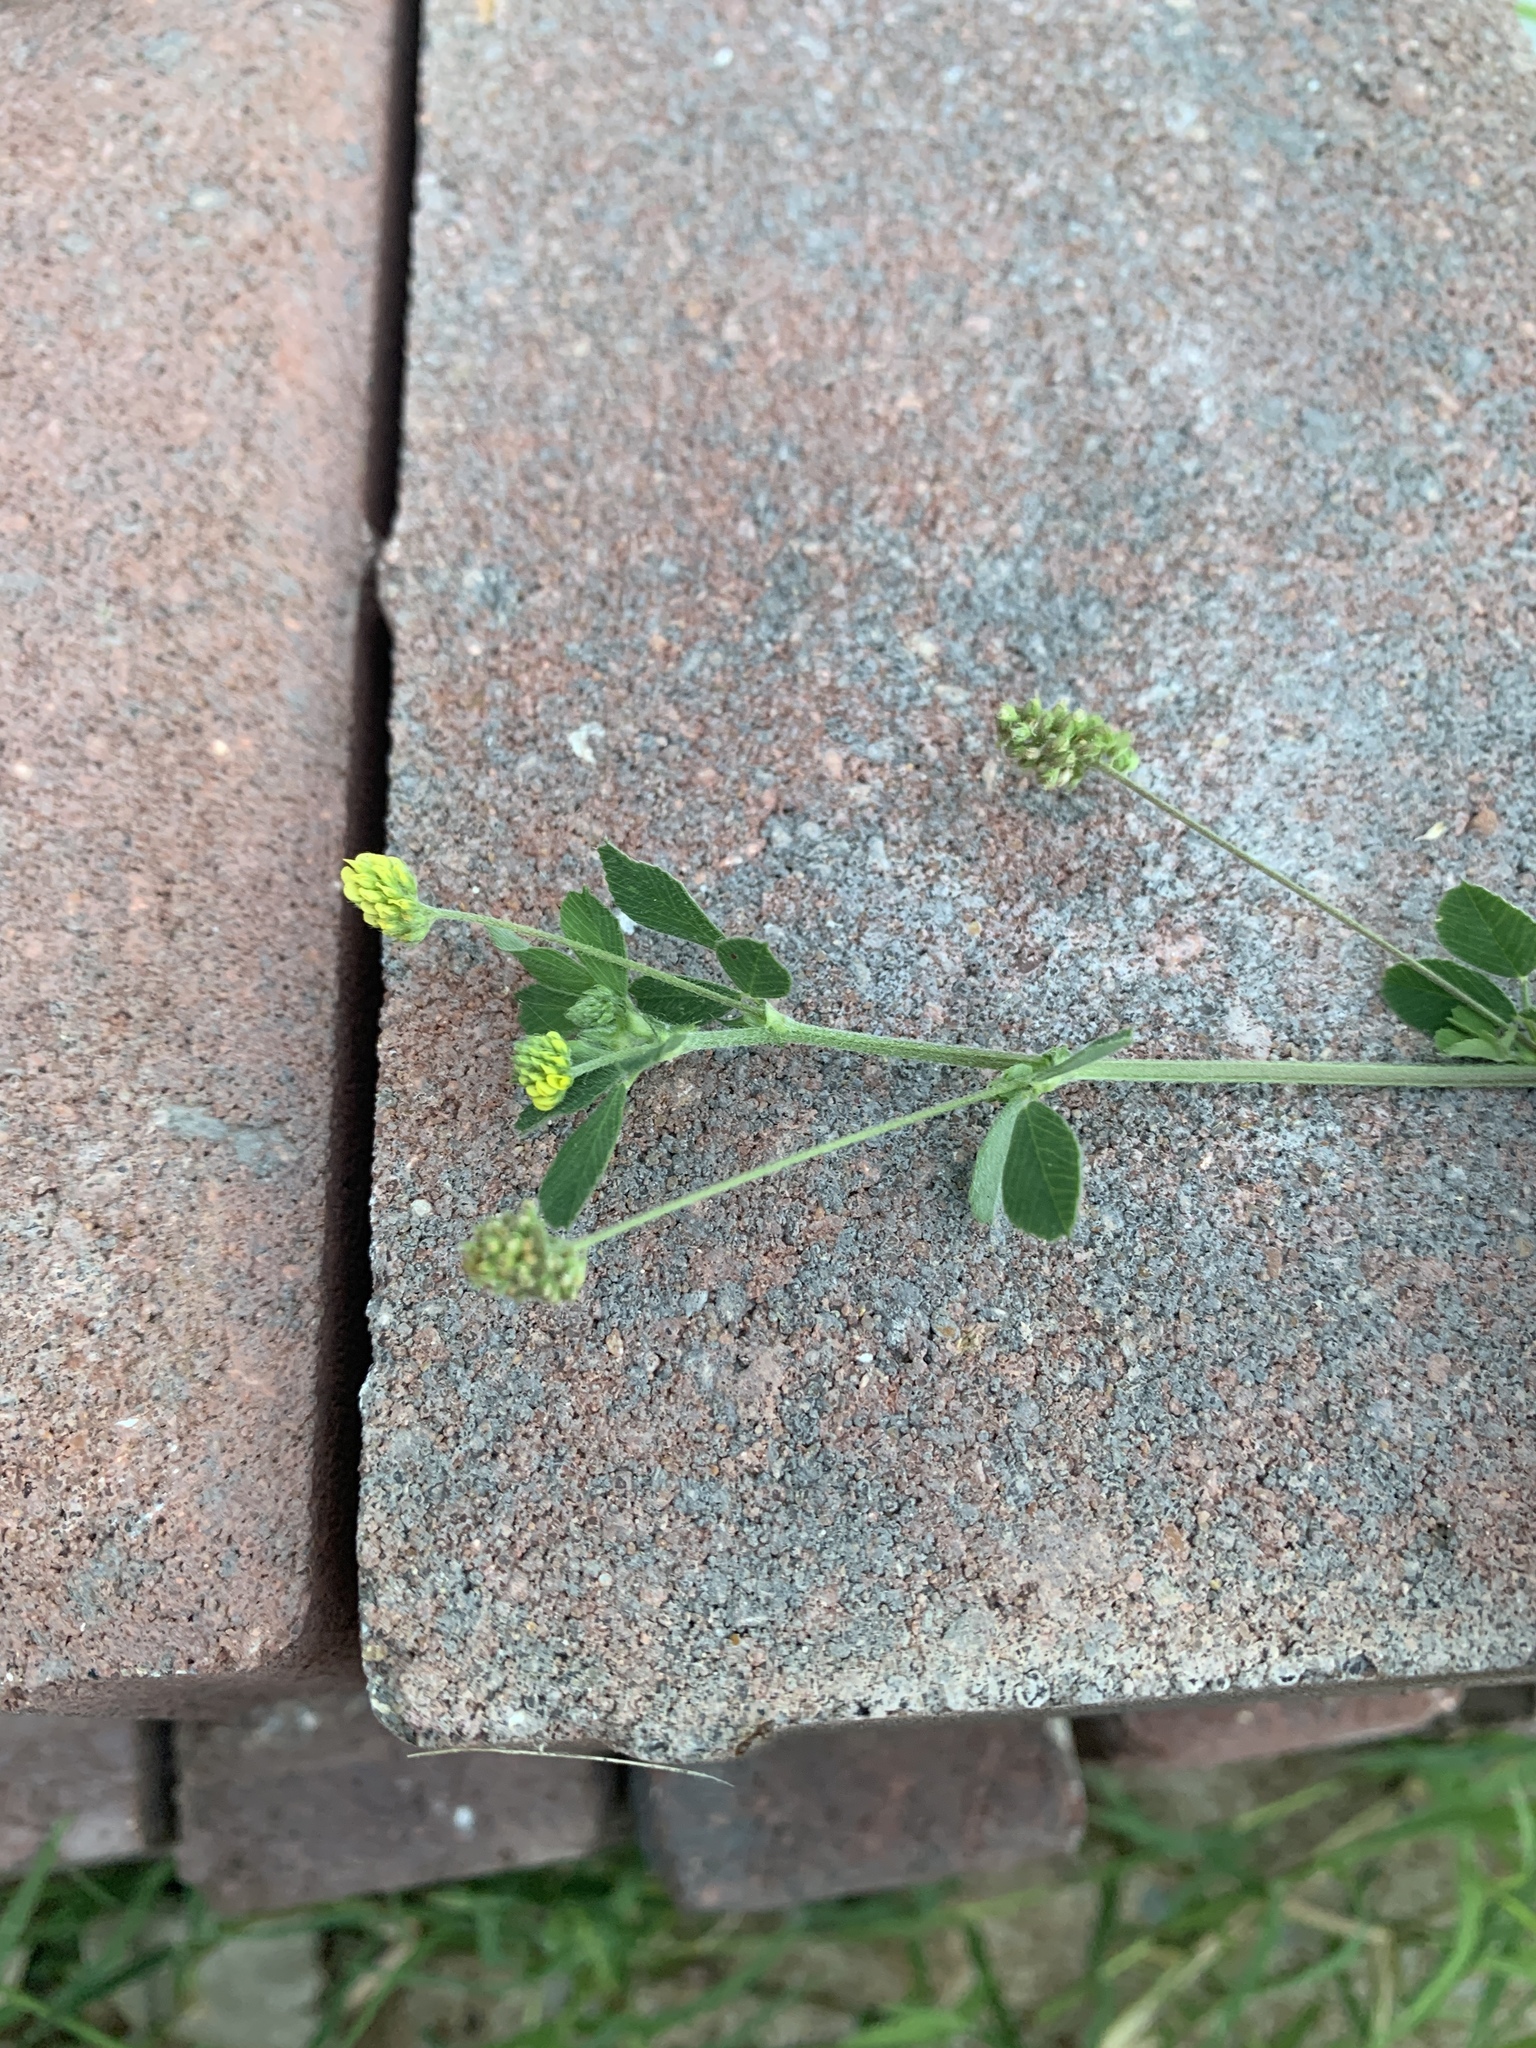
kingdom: Plantae
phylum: Tracheophyta
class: Magnoliopsida
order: Fabales
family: Fabaceae
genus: Medicago
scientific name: Medicago lupulina
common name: Black medick
